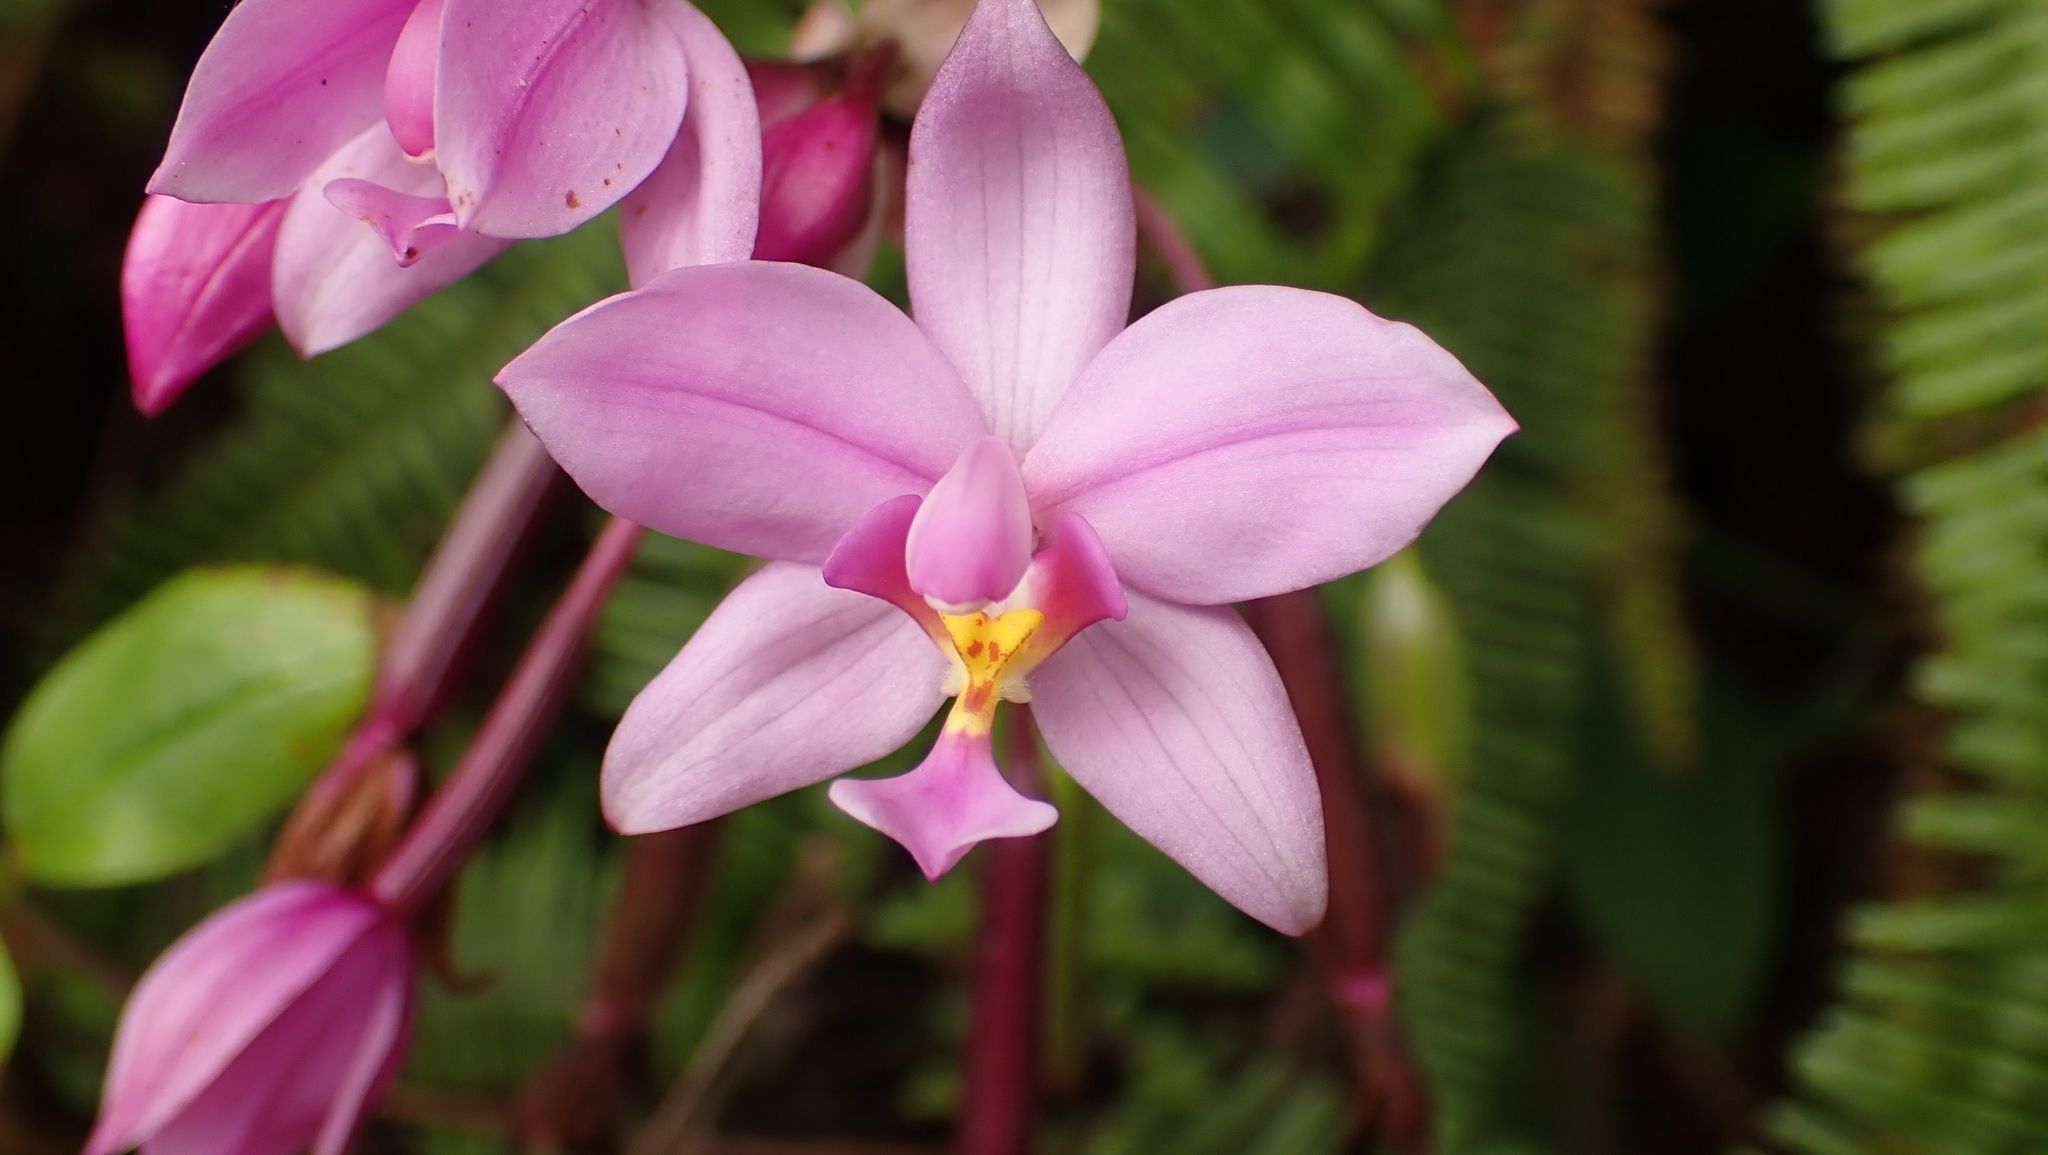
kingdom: Plantae
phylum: Tracheophyta
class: Liliopsida
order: Asparagales
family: Orchidaceae
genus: Spathoglottis
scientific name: Spathoglottis plicata
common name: Philippine ground orchid
